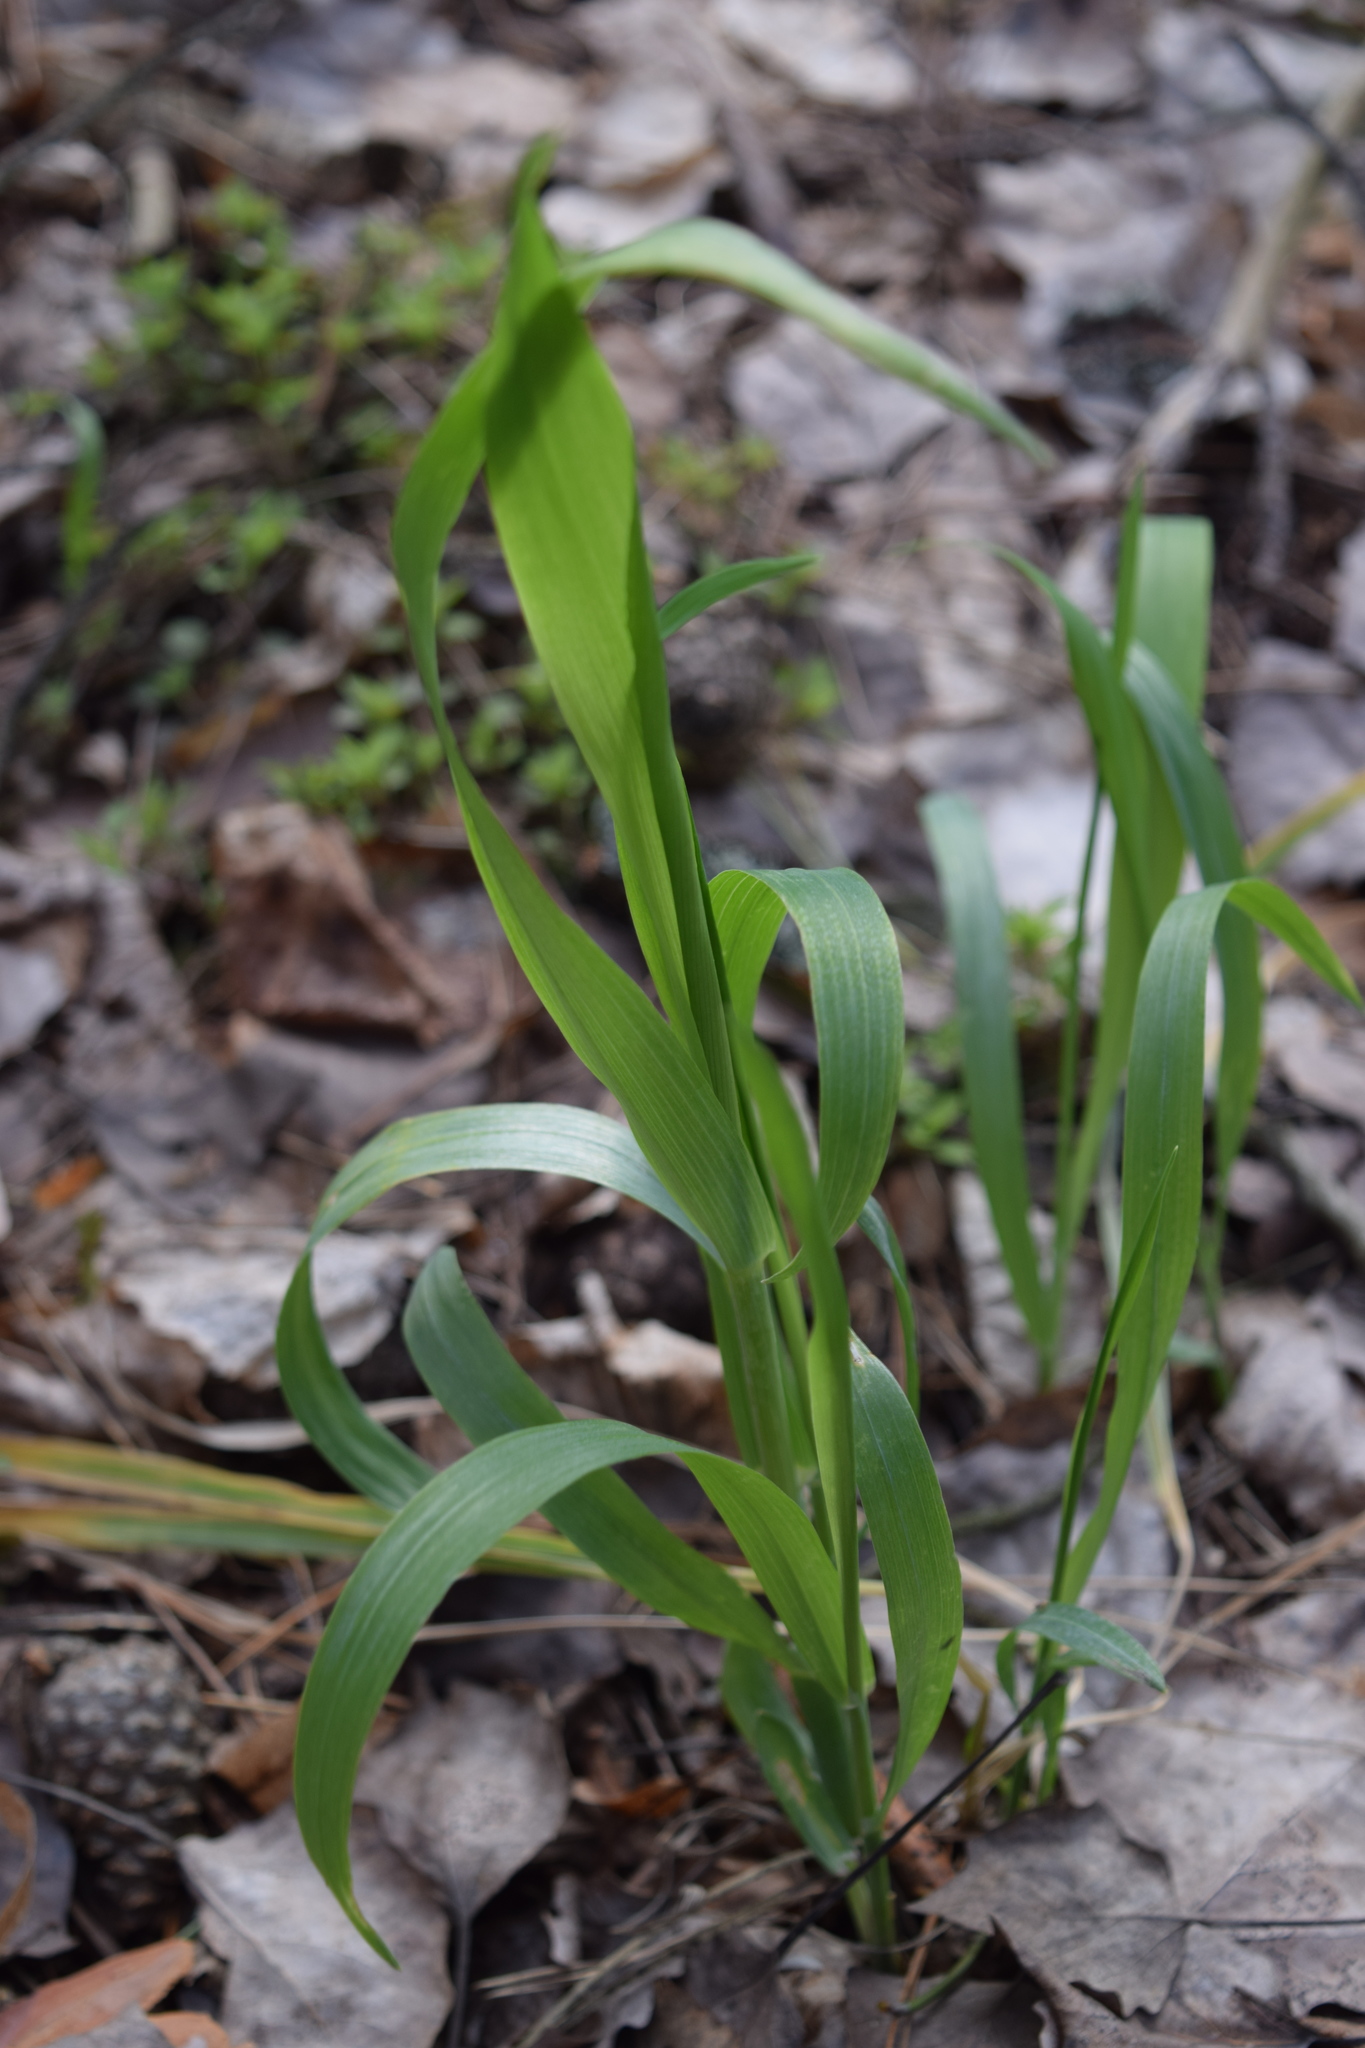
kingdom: Plantae
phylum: Tracheophyta
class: Liliopsida
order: Poales
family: Poaceae
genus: Milium
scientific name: Milium effusum
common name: Wood millet
